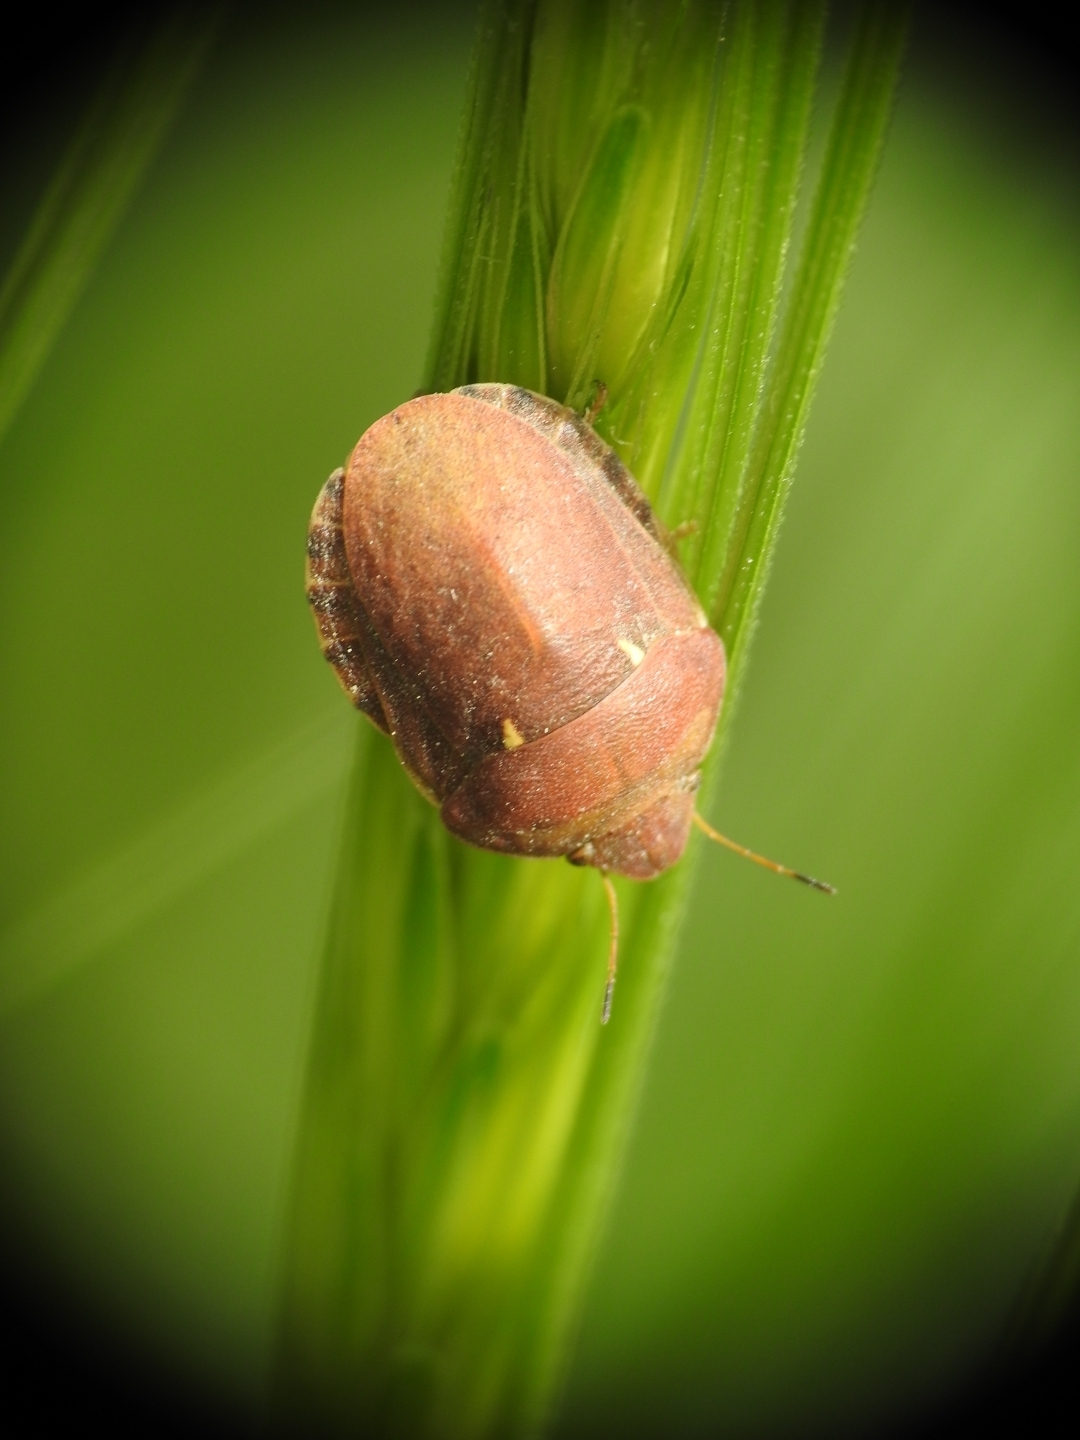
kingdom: Animalia
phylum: Arthropoda
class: Insecta
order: Hemiptera
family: Scutelleridae
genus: Eurygaster
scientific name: Eurygaster maura
